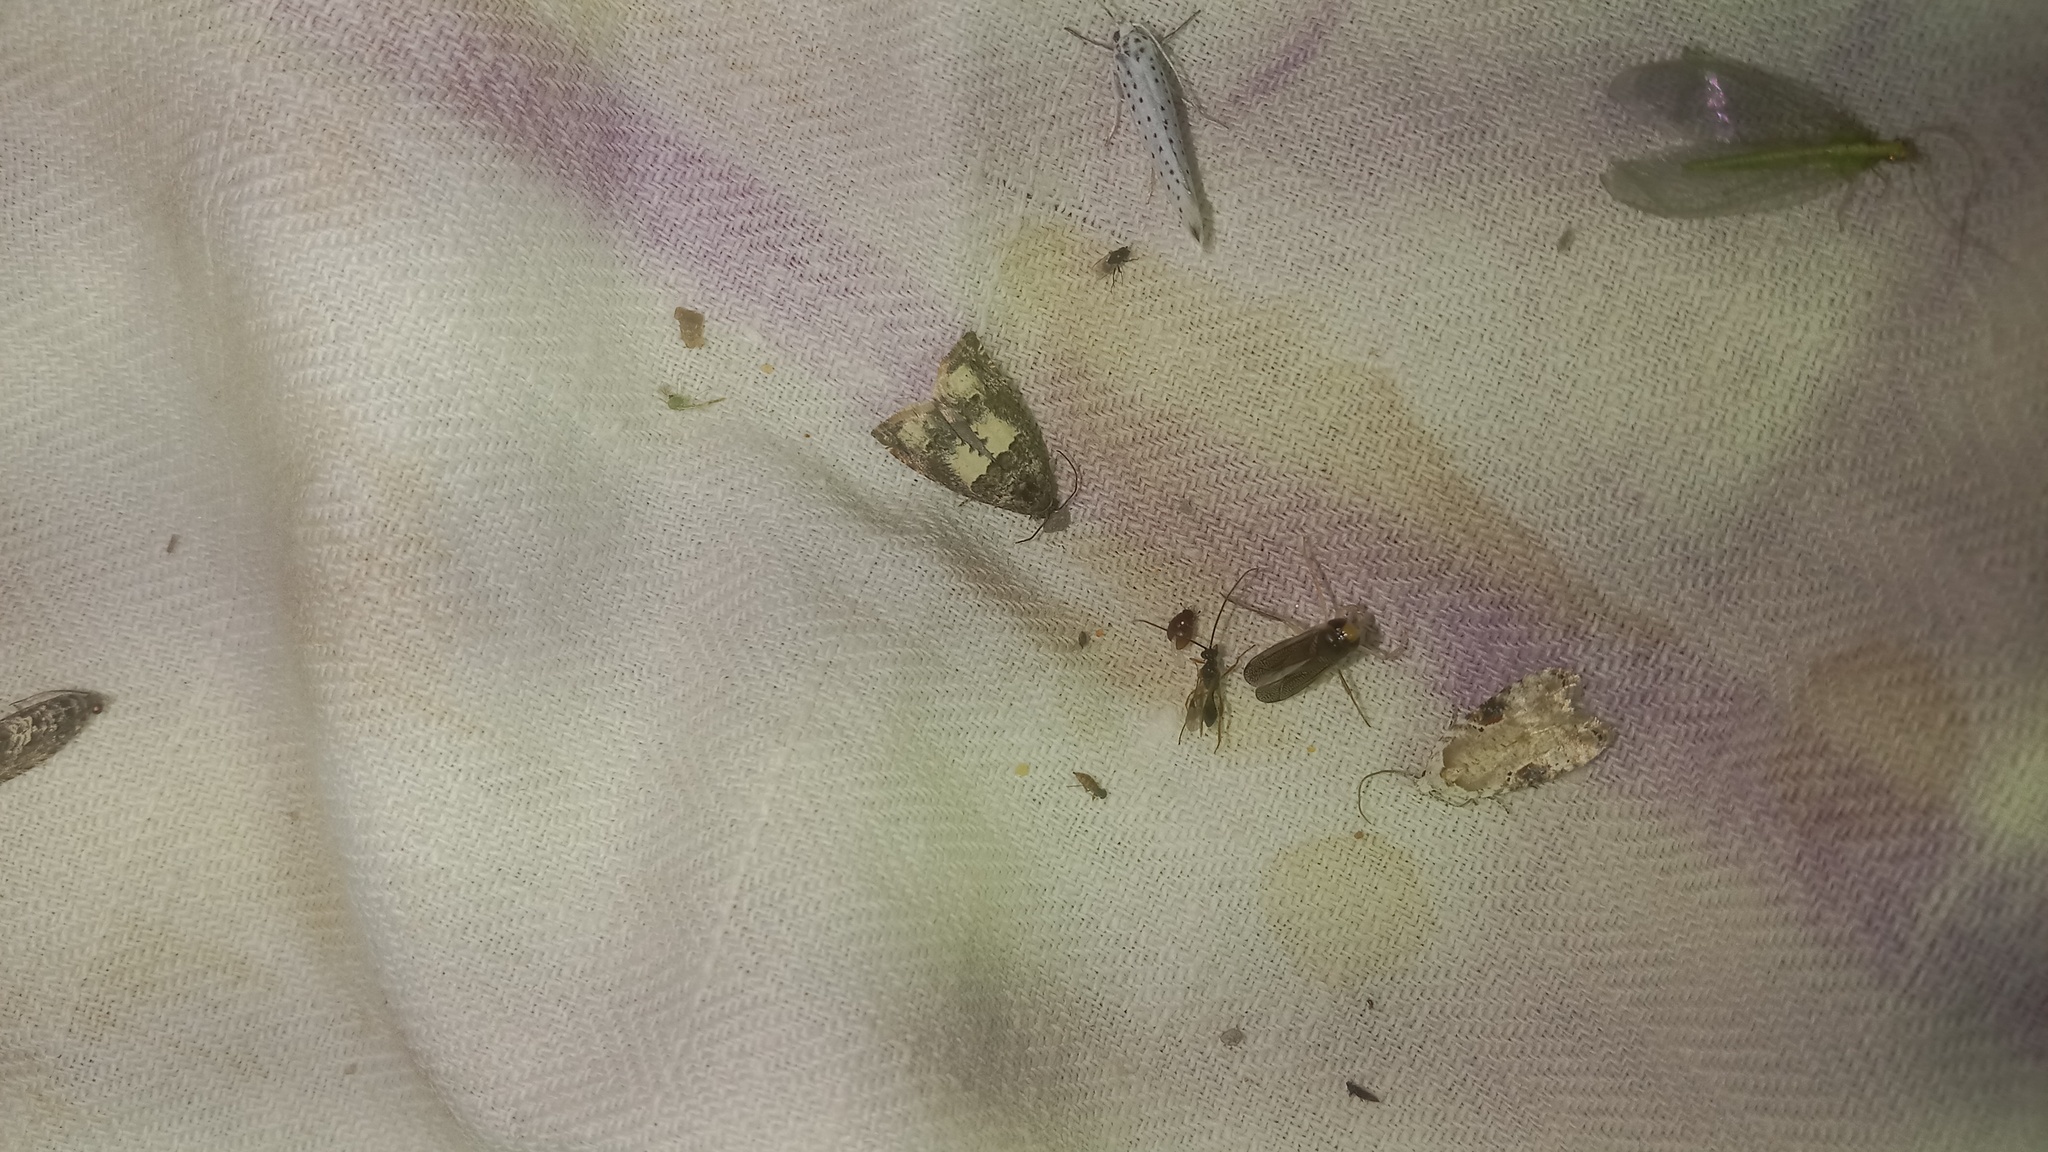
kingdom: Animalia
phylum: Arthropoda
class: Insecta
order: Lepidoptera
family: Depressariidae
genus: Agonopterix
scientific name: Agonopterix alstroemeriana
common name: Moth
